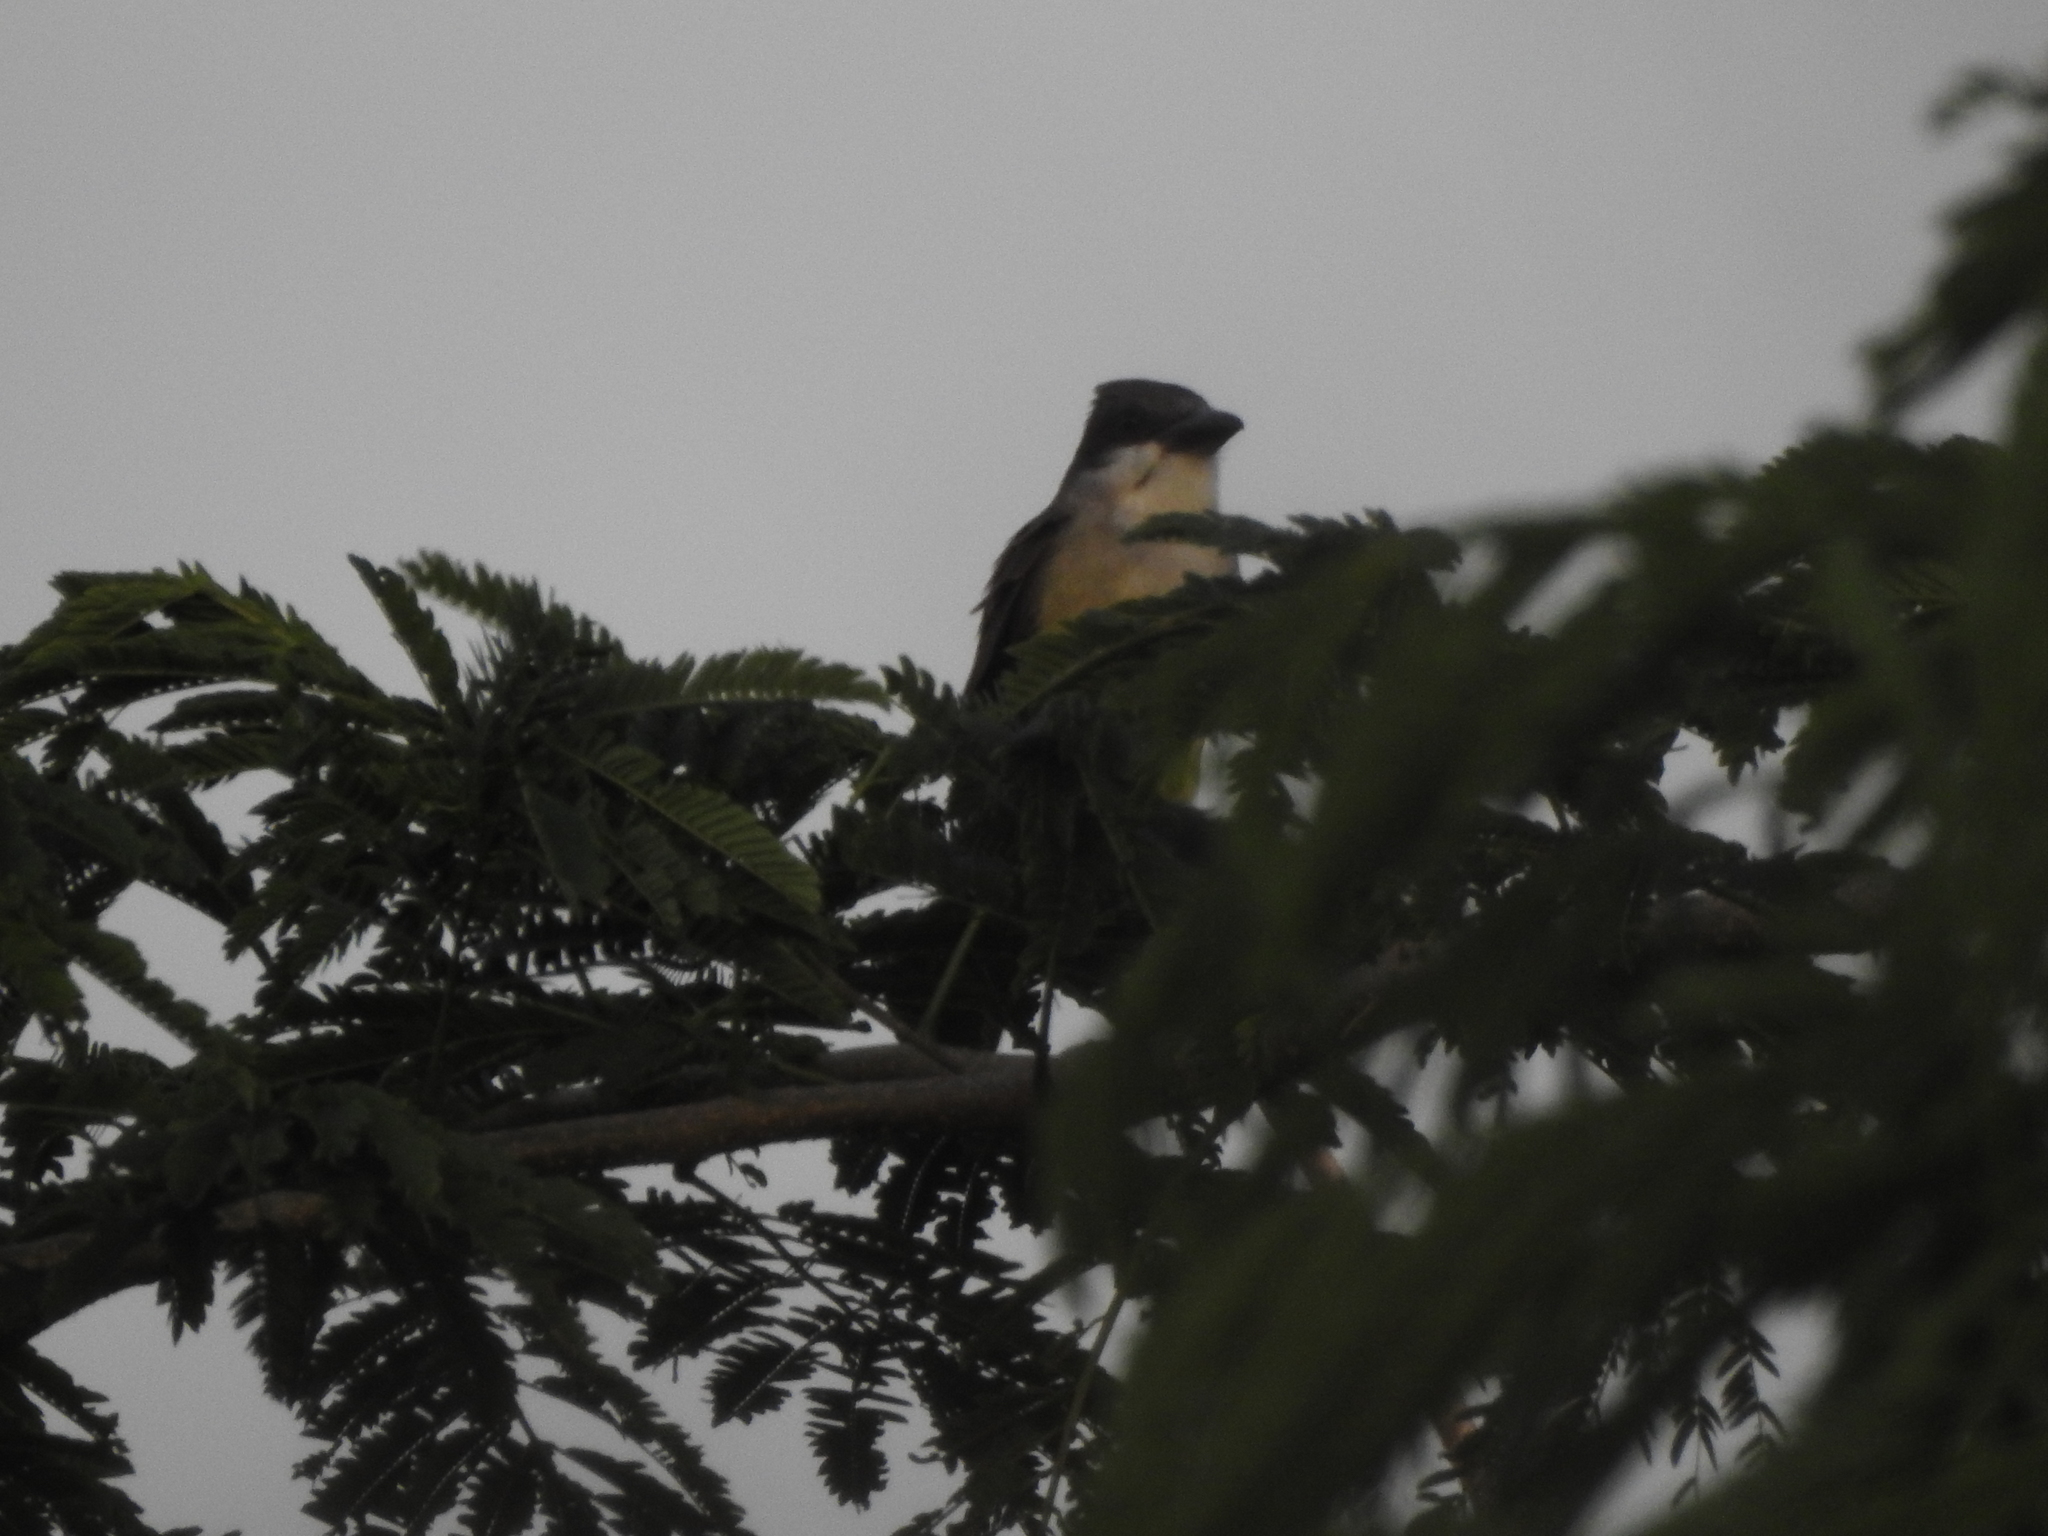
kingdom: Animalia
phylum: Chordata
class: Aves
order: Passeriformes
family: Tyrannidae
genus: Tyrannus
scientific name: Tyrannus crassirostris
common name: Thick-billed kingbird
